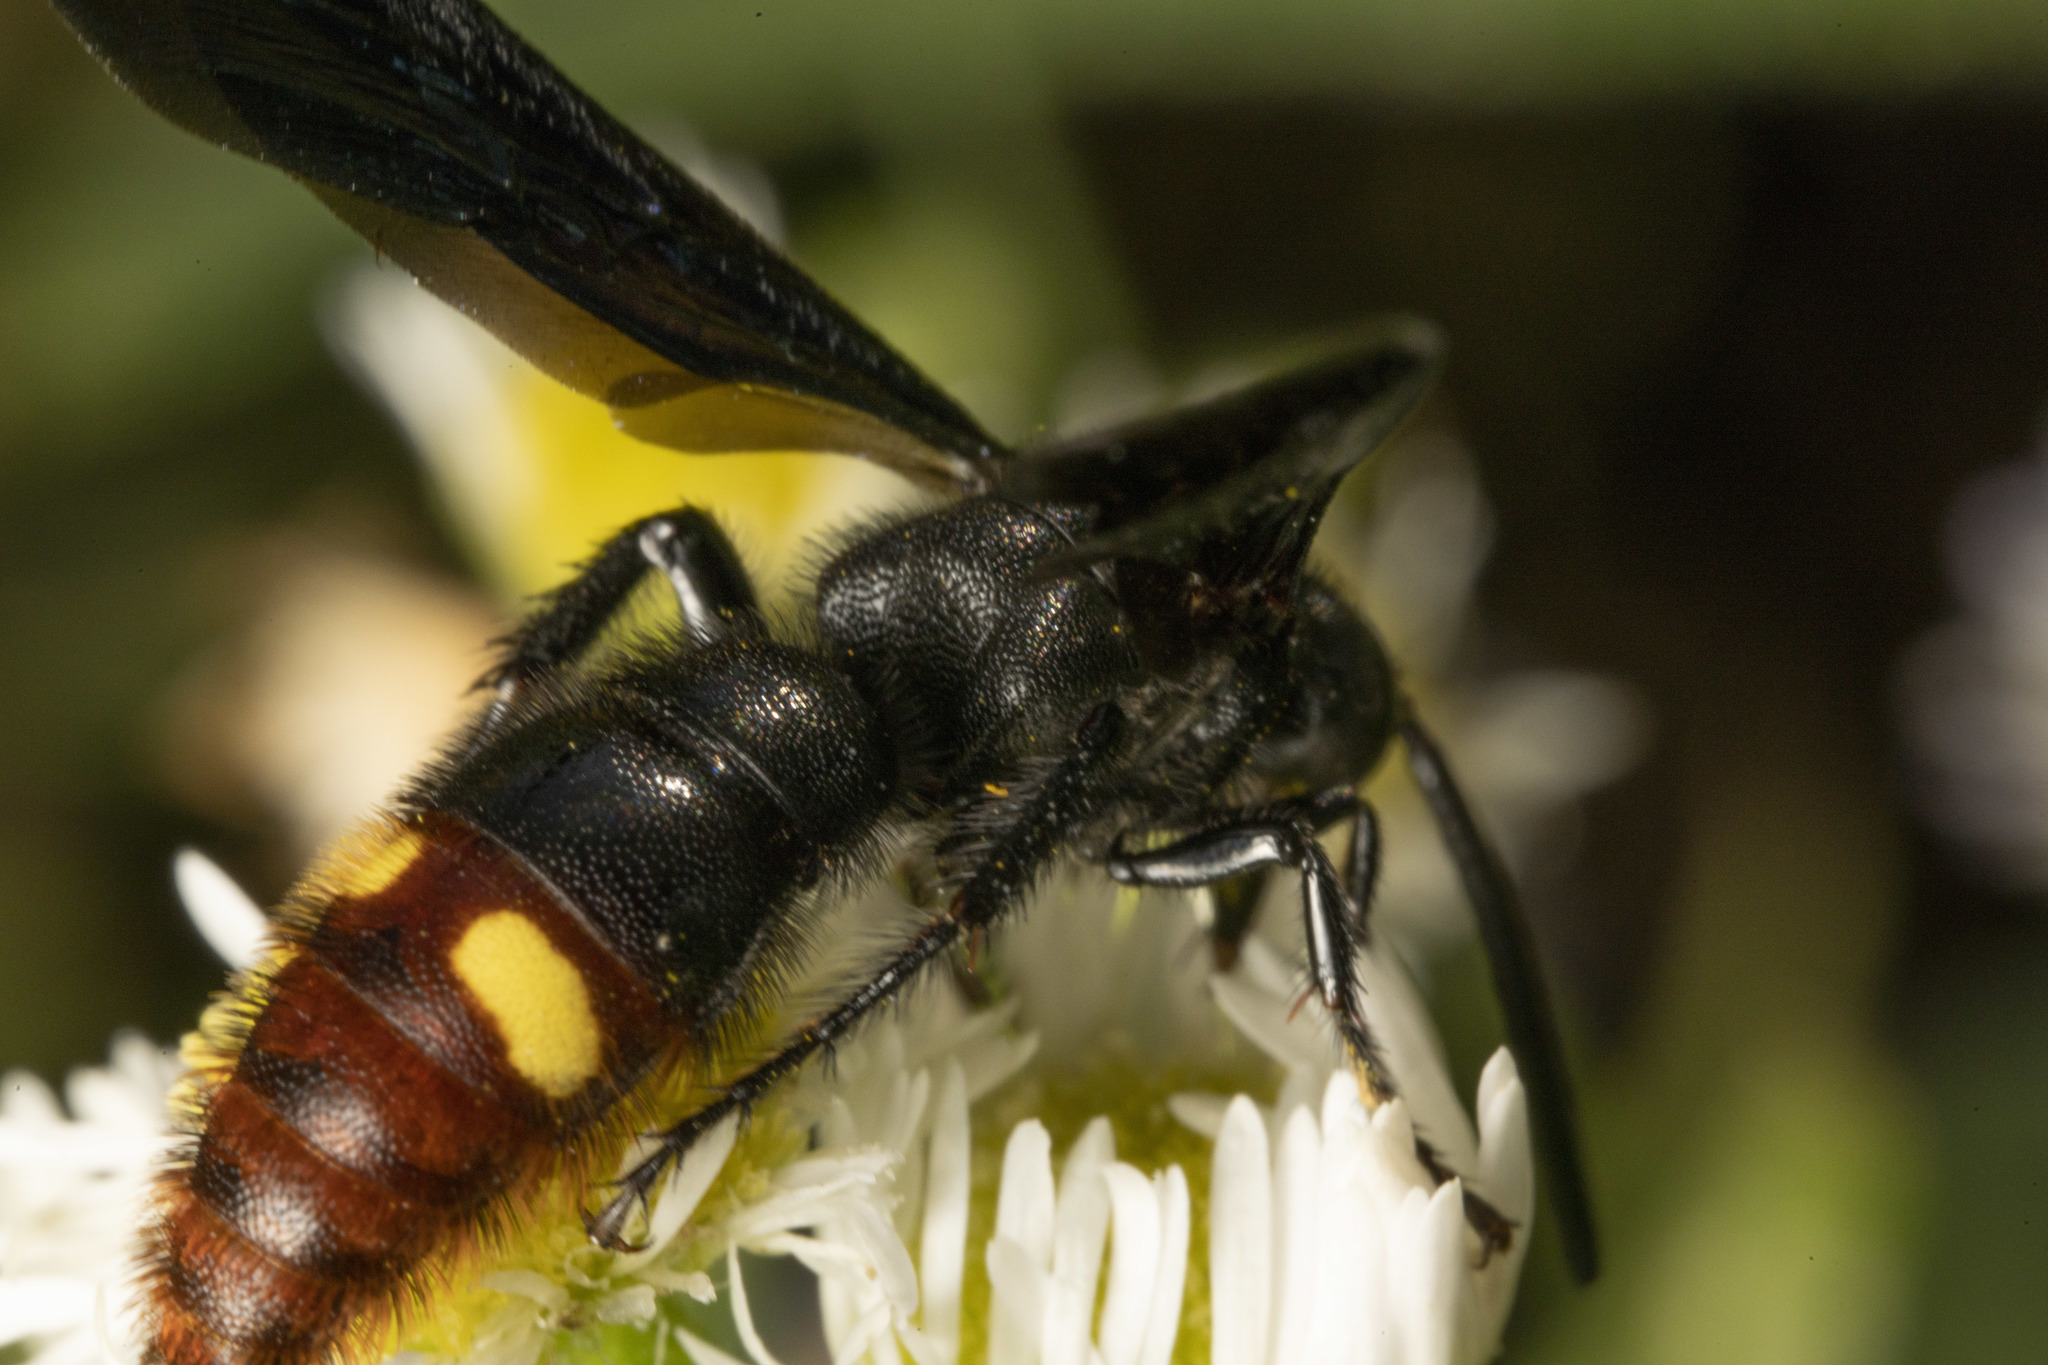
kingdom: Animalia
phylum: Arthropoda
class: Insecta
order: Hymenoptera
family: Scoliidae
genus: Scolia
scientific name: Scolia dubia
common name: Blue-winged scoliid wasp
